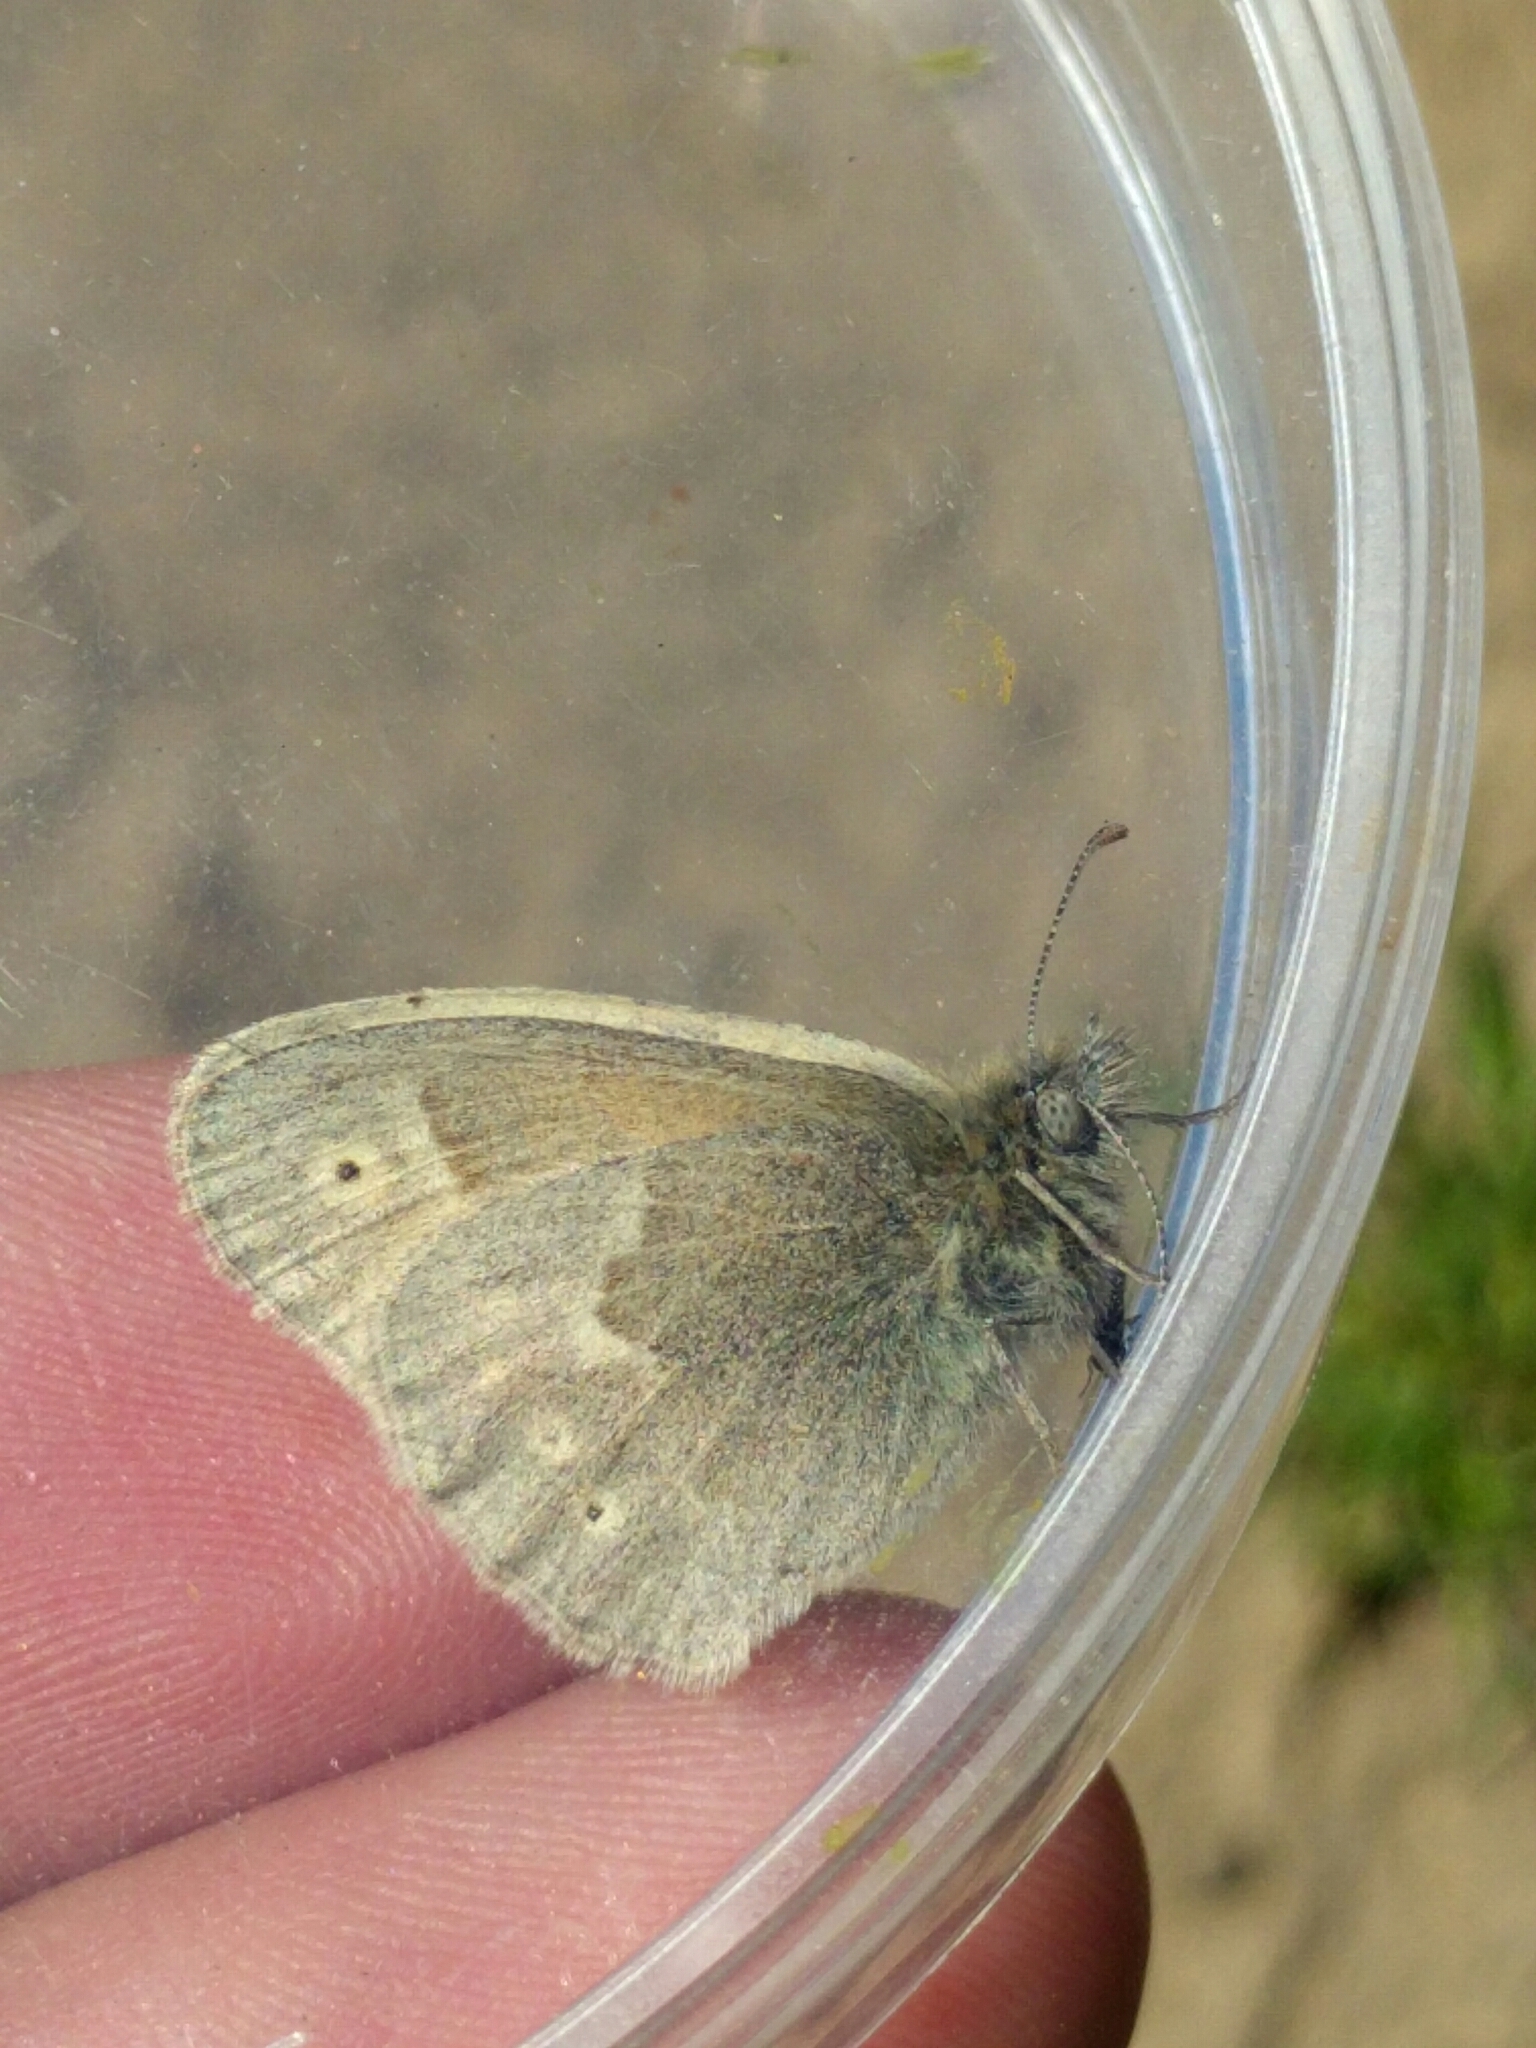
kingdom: Animalia
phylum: Arthropoda
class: Insecta
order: Lepidoptera
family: Nymphalidae
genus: Coenonympha
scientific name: Coenonympha california
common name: Common ringlet
